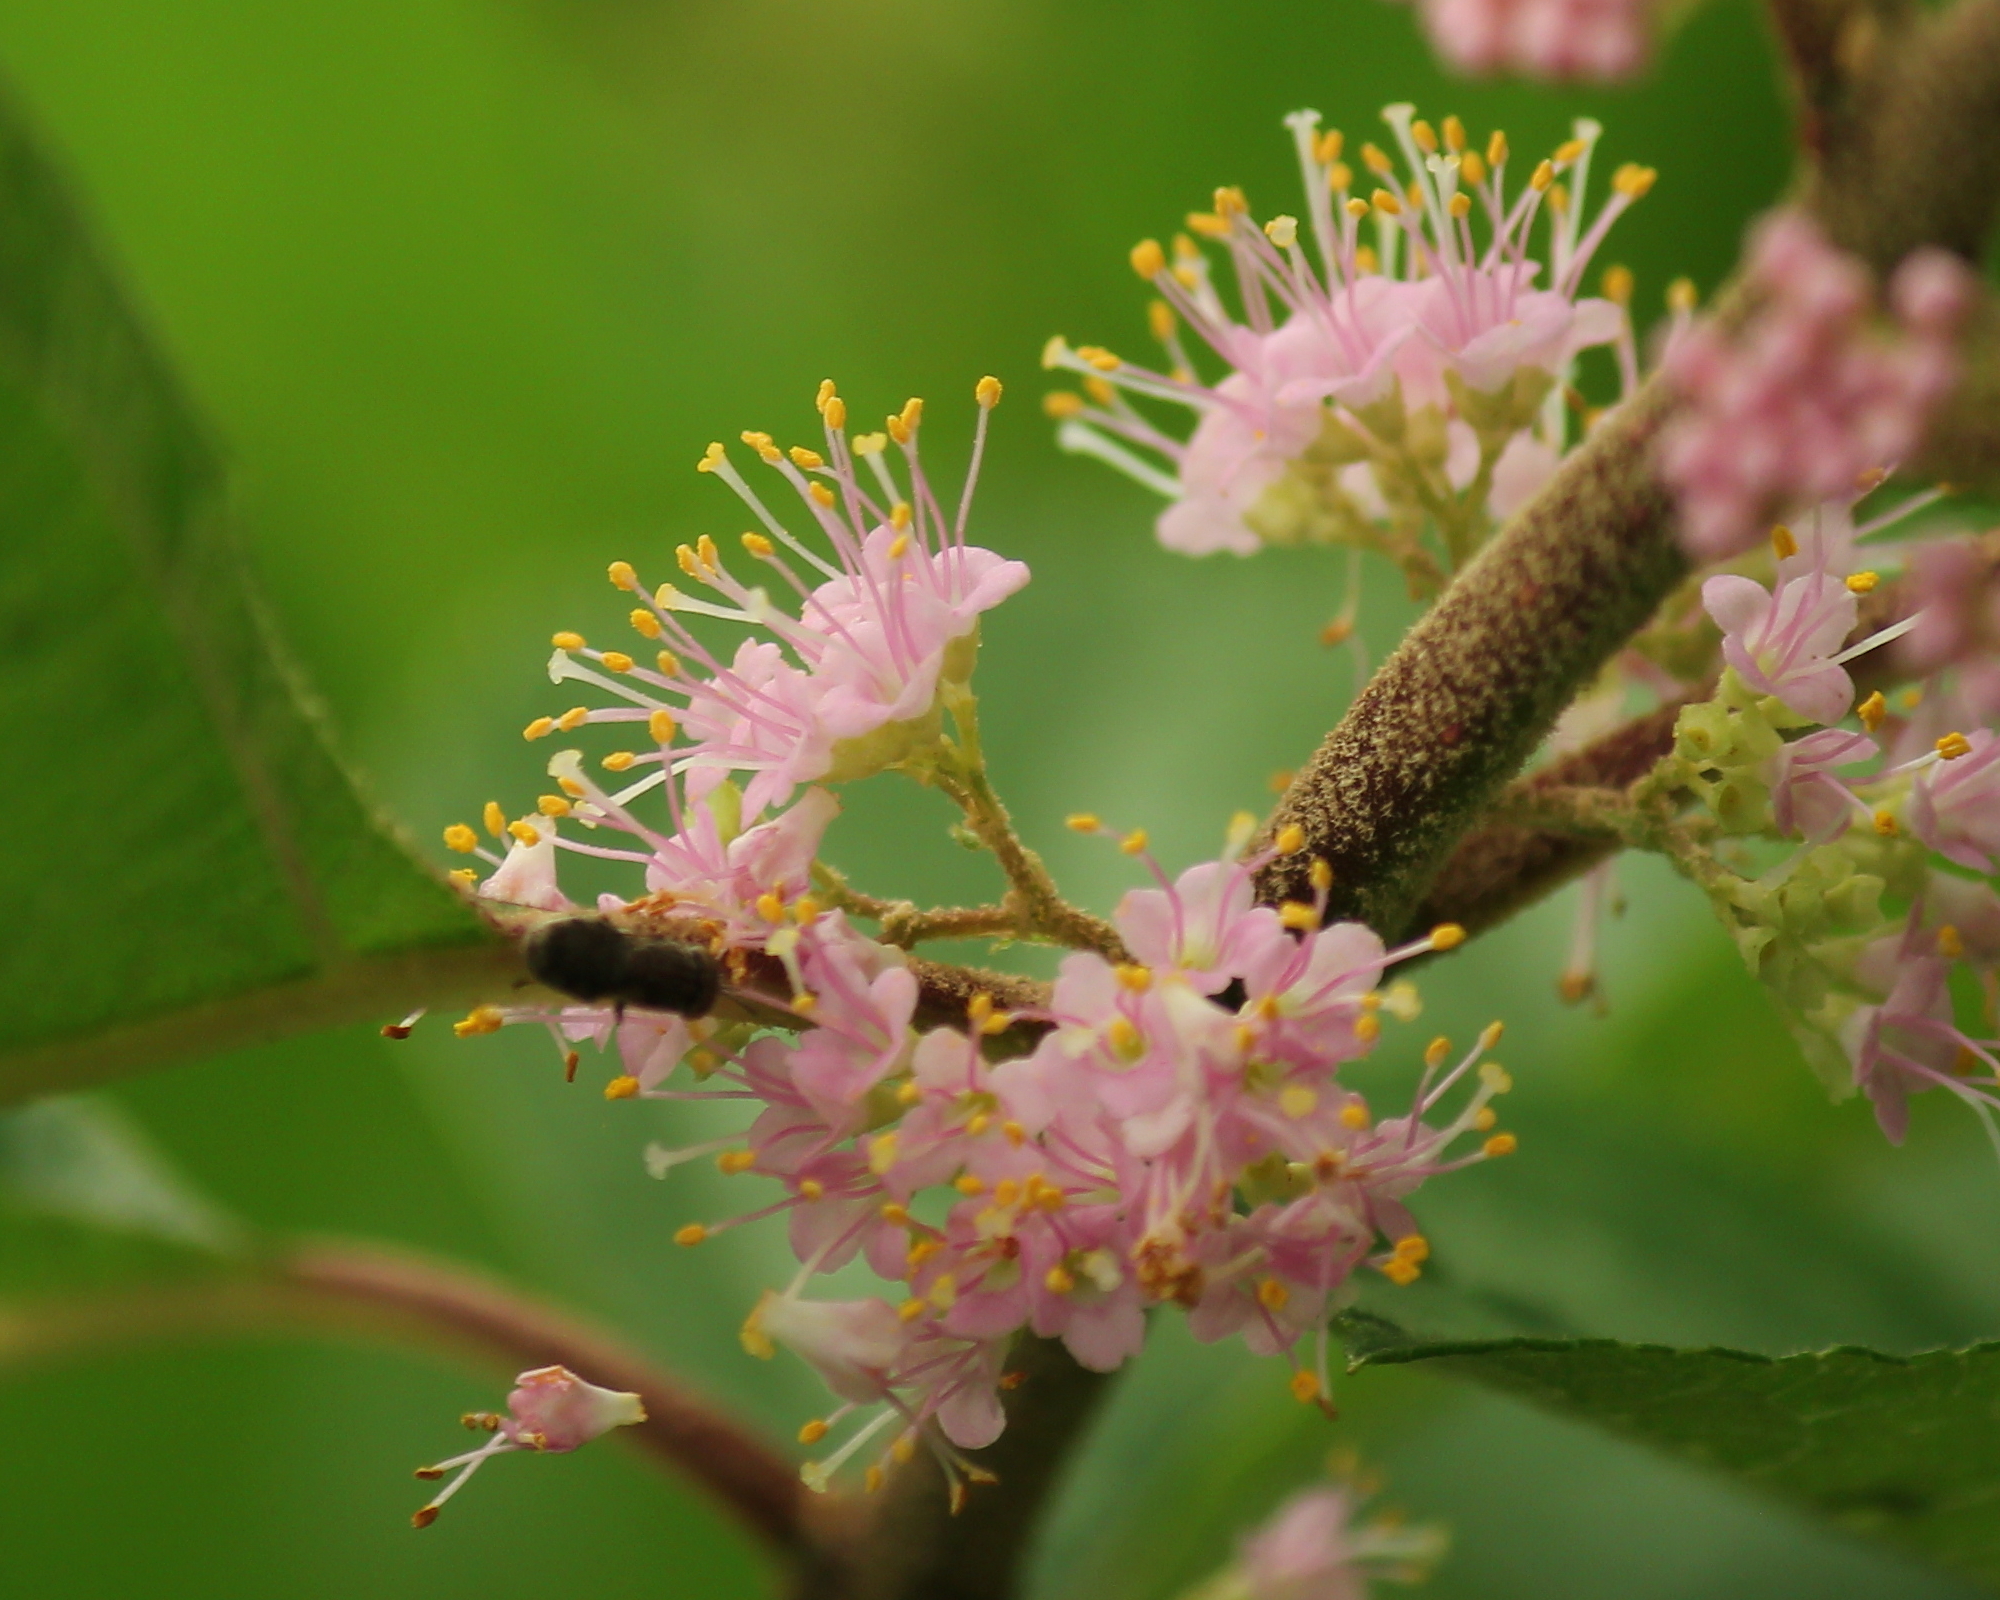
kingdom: Plantae
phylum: Tracheophyta
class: Magnoliopsida
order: Lamiales
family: Lamiaceae
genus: Callicarpa
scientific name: Callicarpa americana
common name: American beautyberry
